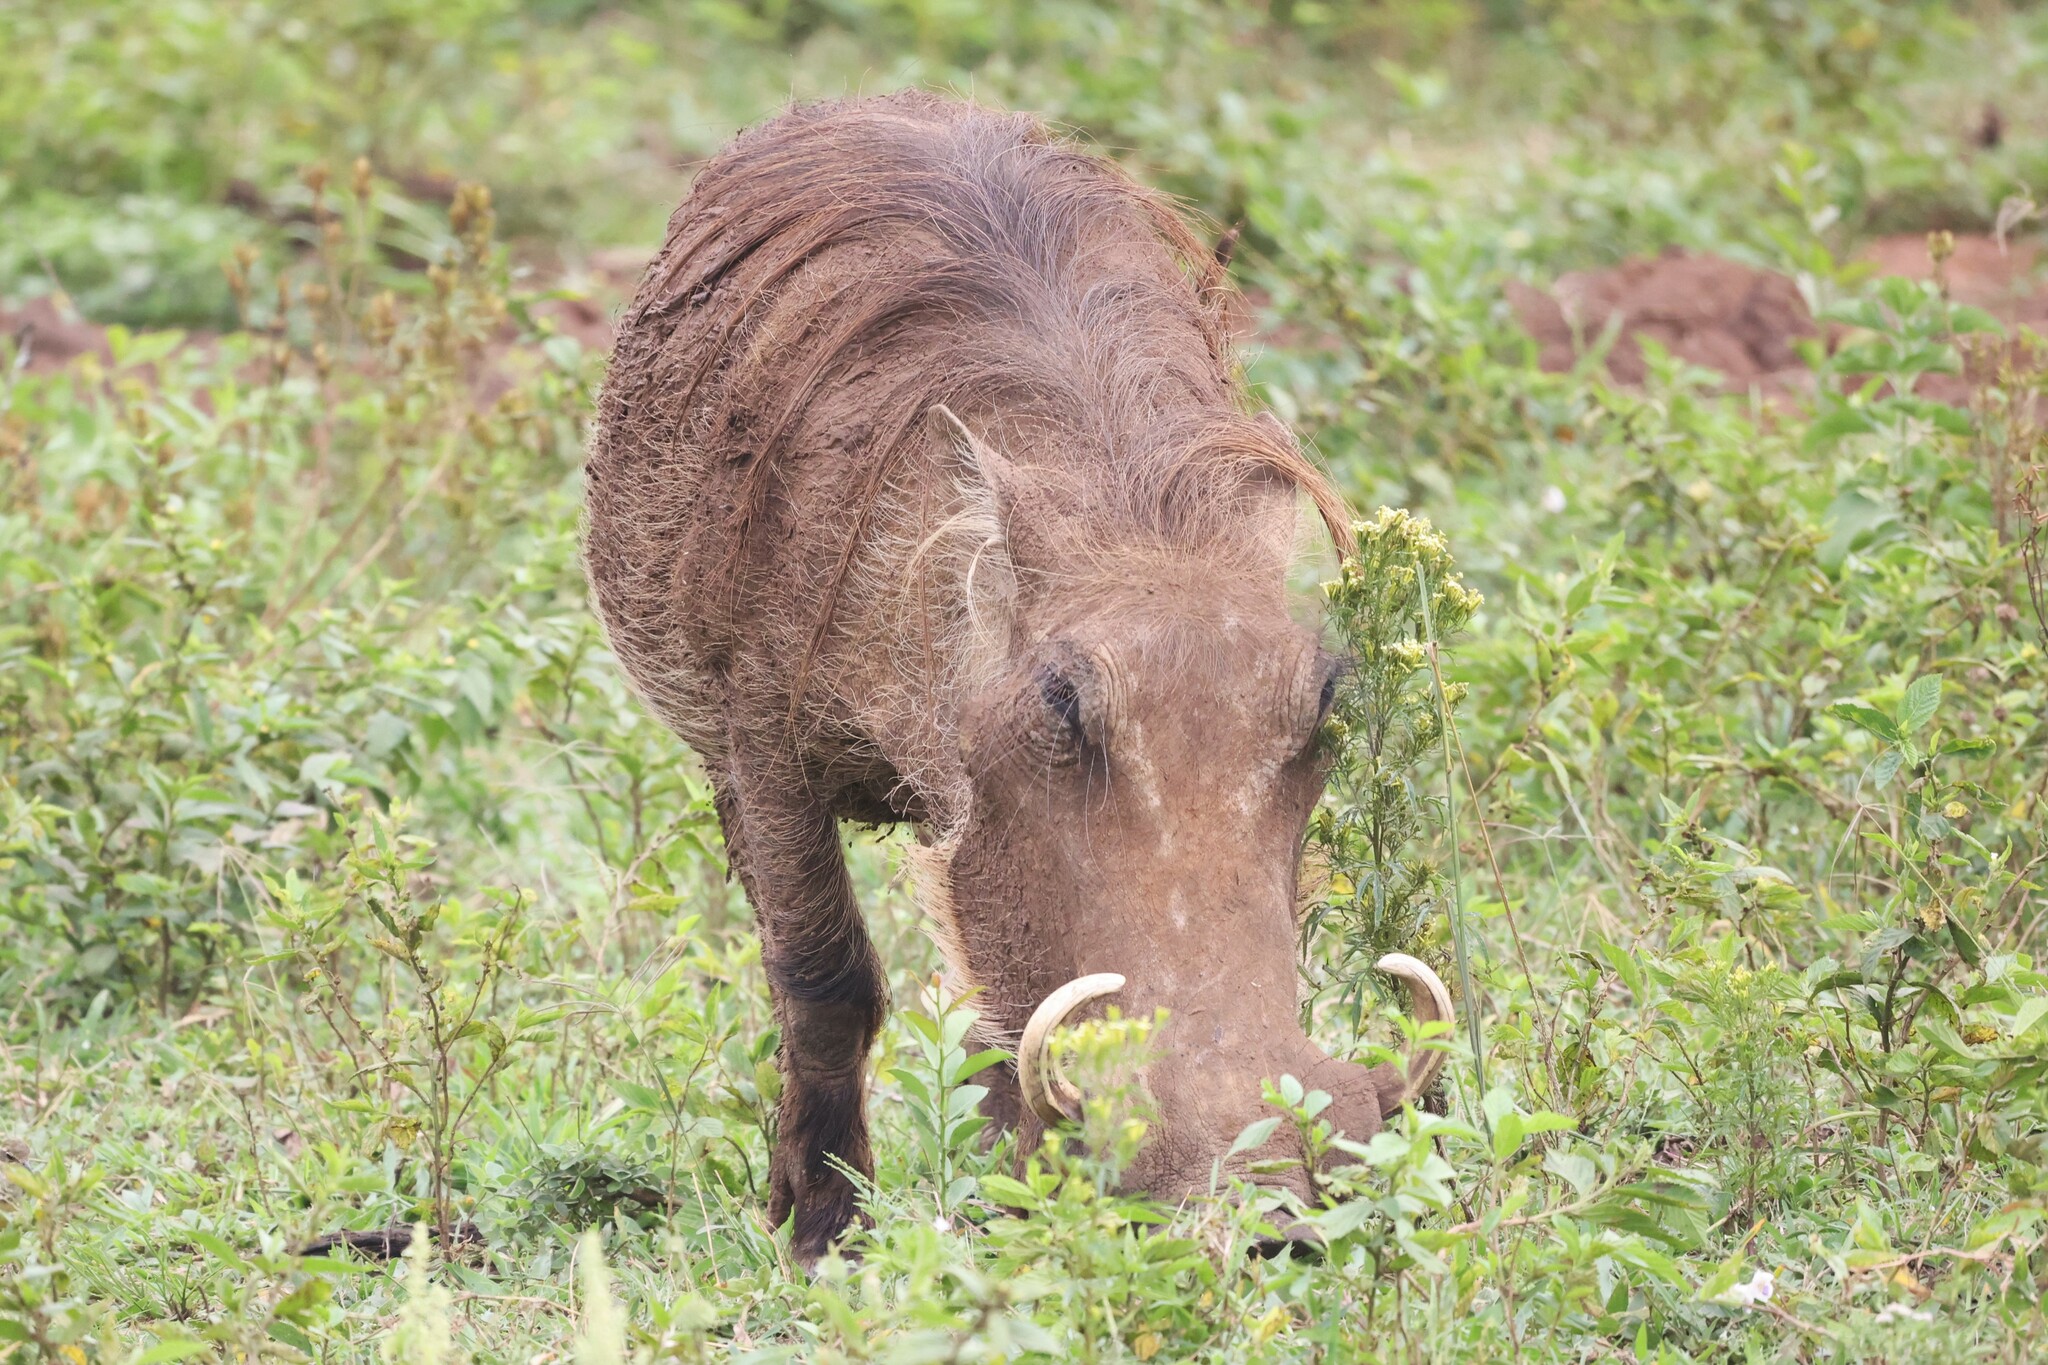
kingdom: Animalia
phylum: Chordata
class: Mammalia
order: Artiodactyla
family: Suidae
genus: Phacochoerus
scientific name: Phacochoerus africanus
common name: Common warthog
